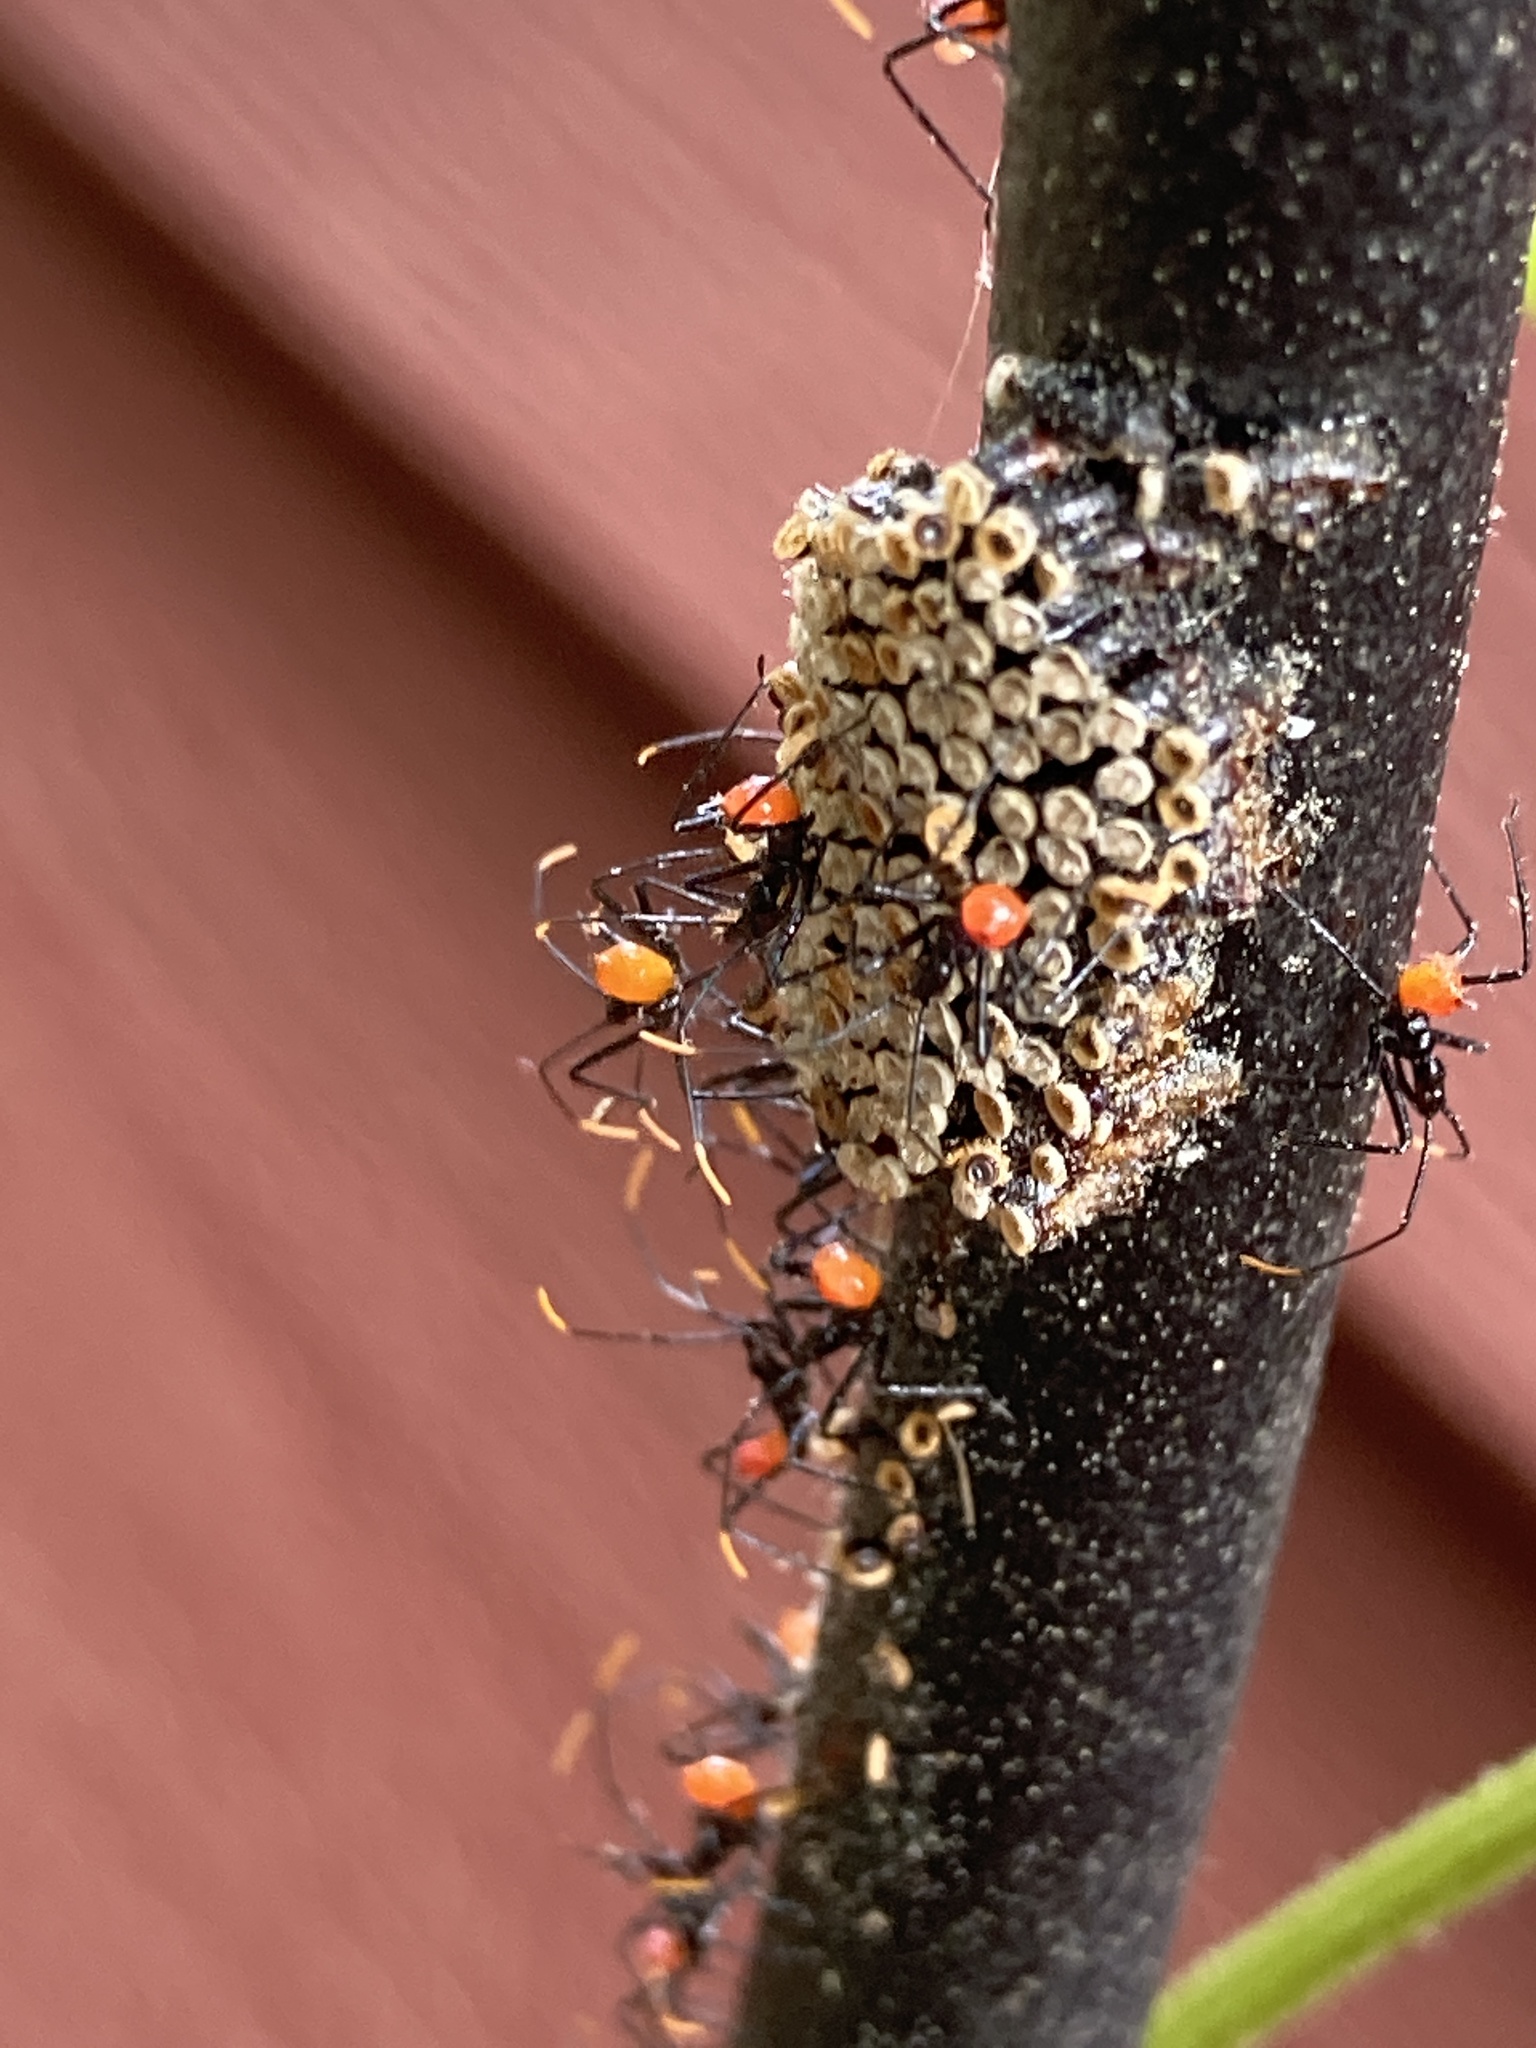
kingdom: Animalia
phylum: Arthropoda
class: Insecta
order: Hemiptera
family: Reduviidae
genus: Arilus
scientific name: Arilus cristatus
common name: North american wheel bug
